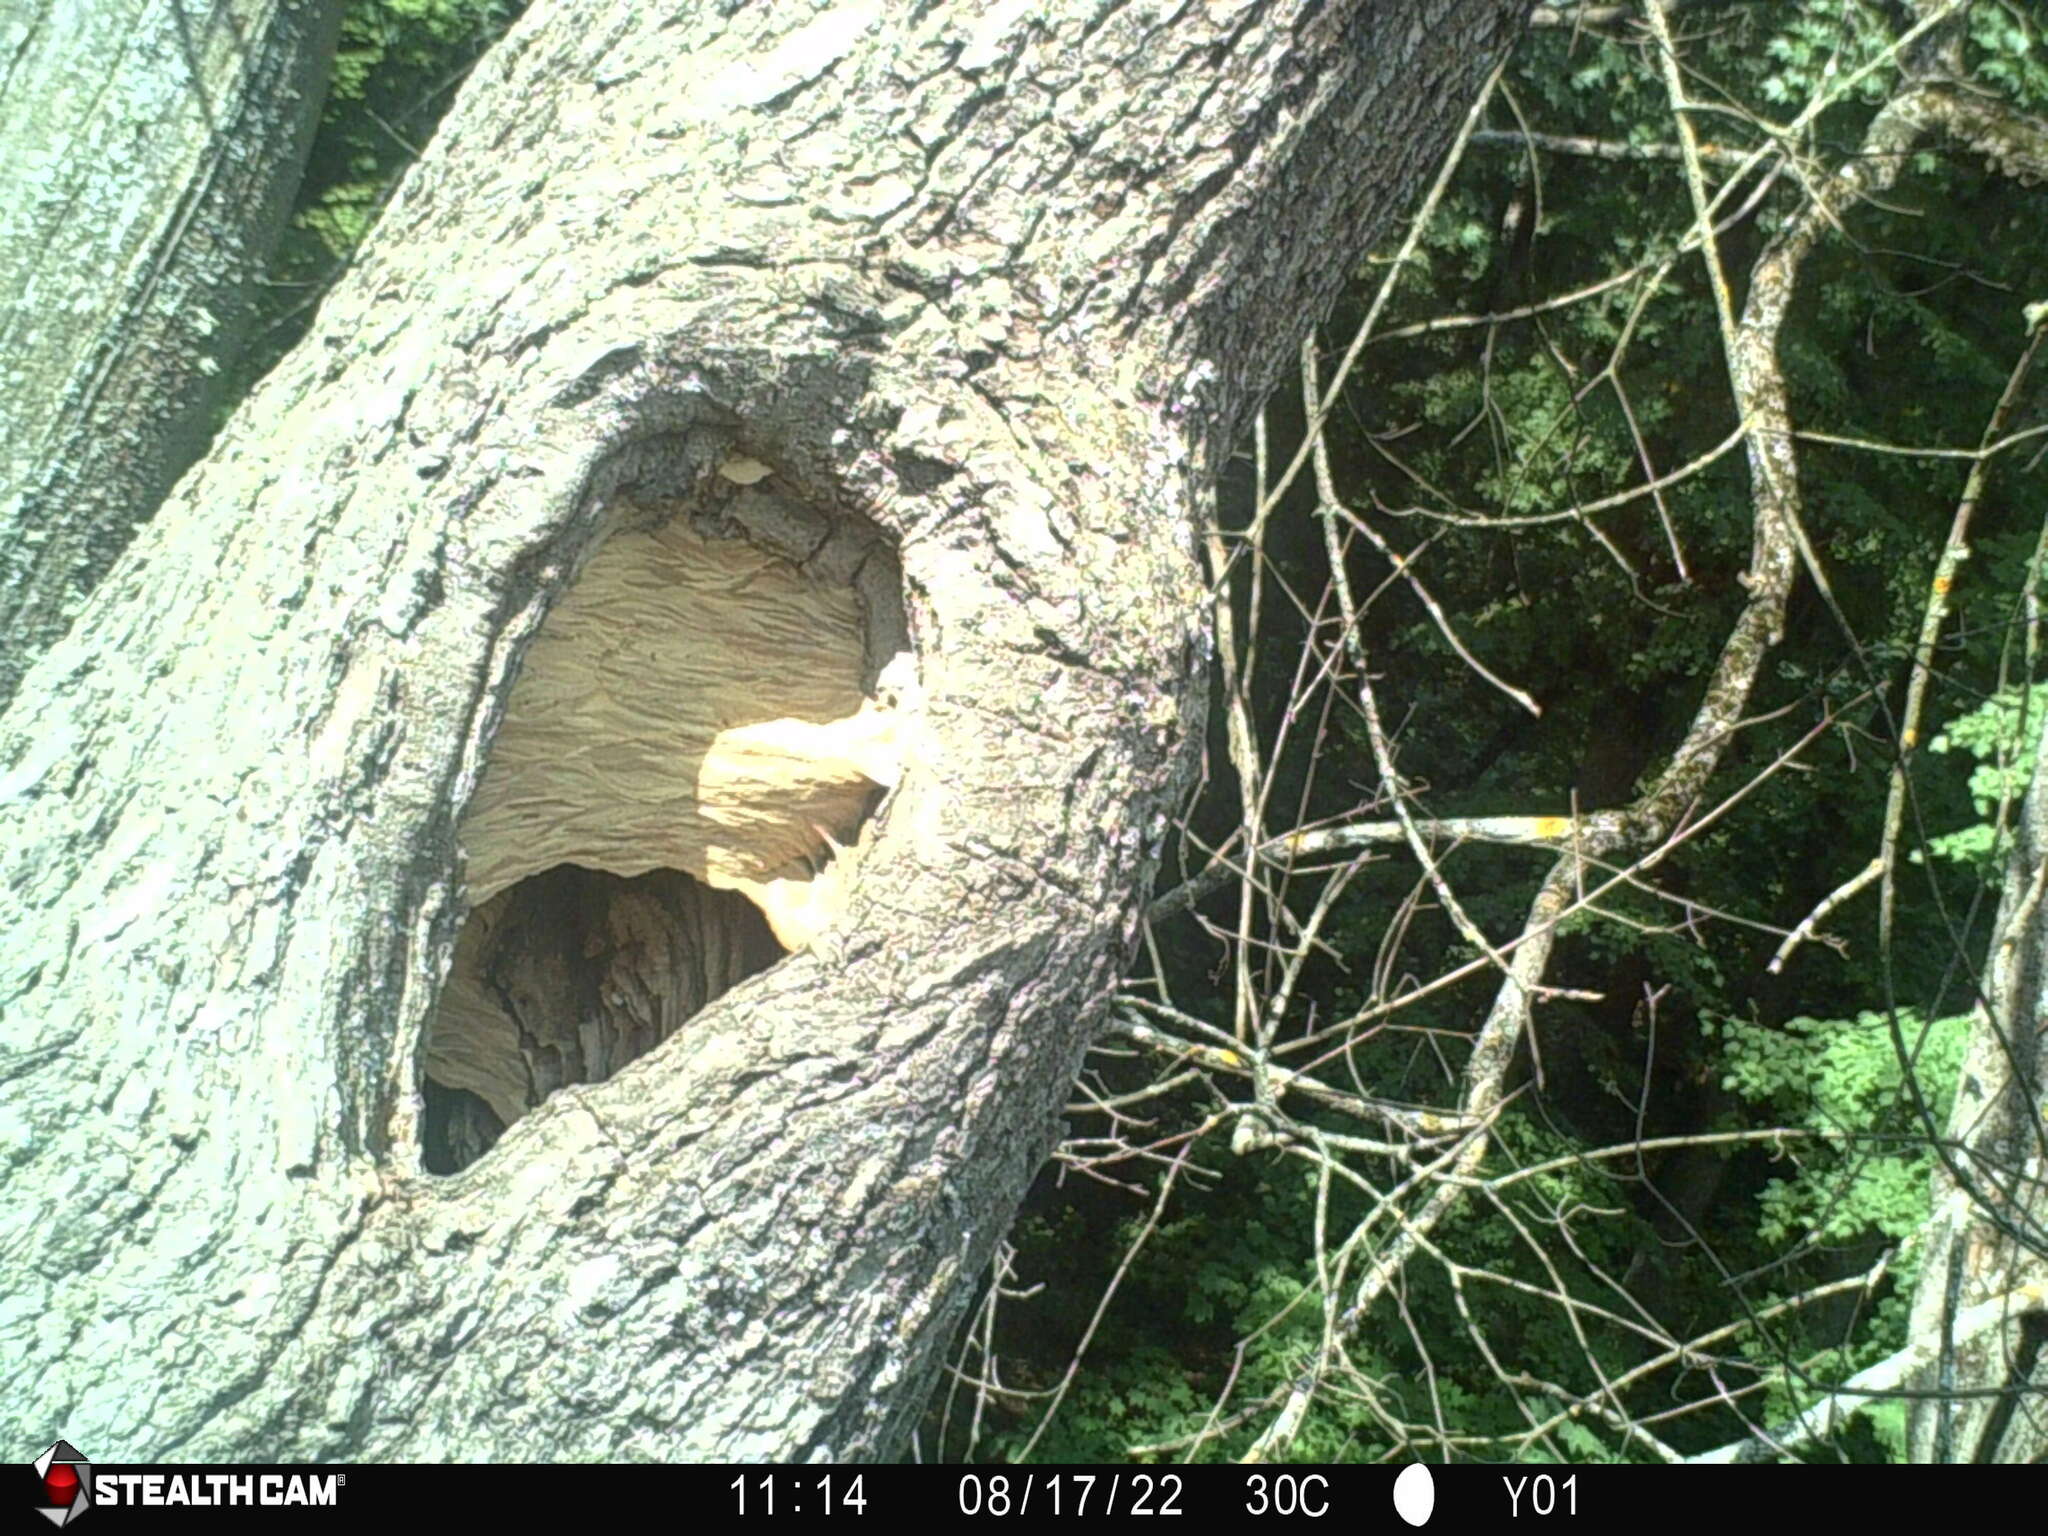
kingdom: Animalia
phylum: Arthropoda
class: Insecta
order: Hymenoptera
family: Vespidae
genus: Vespa
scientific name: Vespa crabro
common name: Hornet
